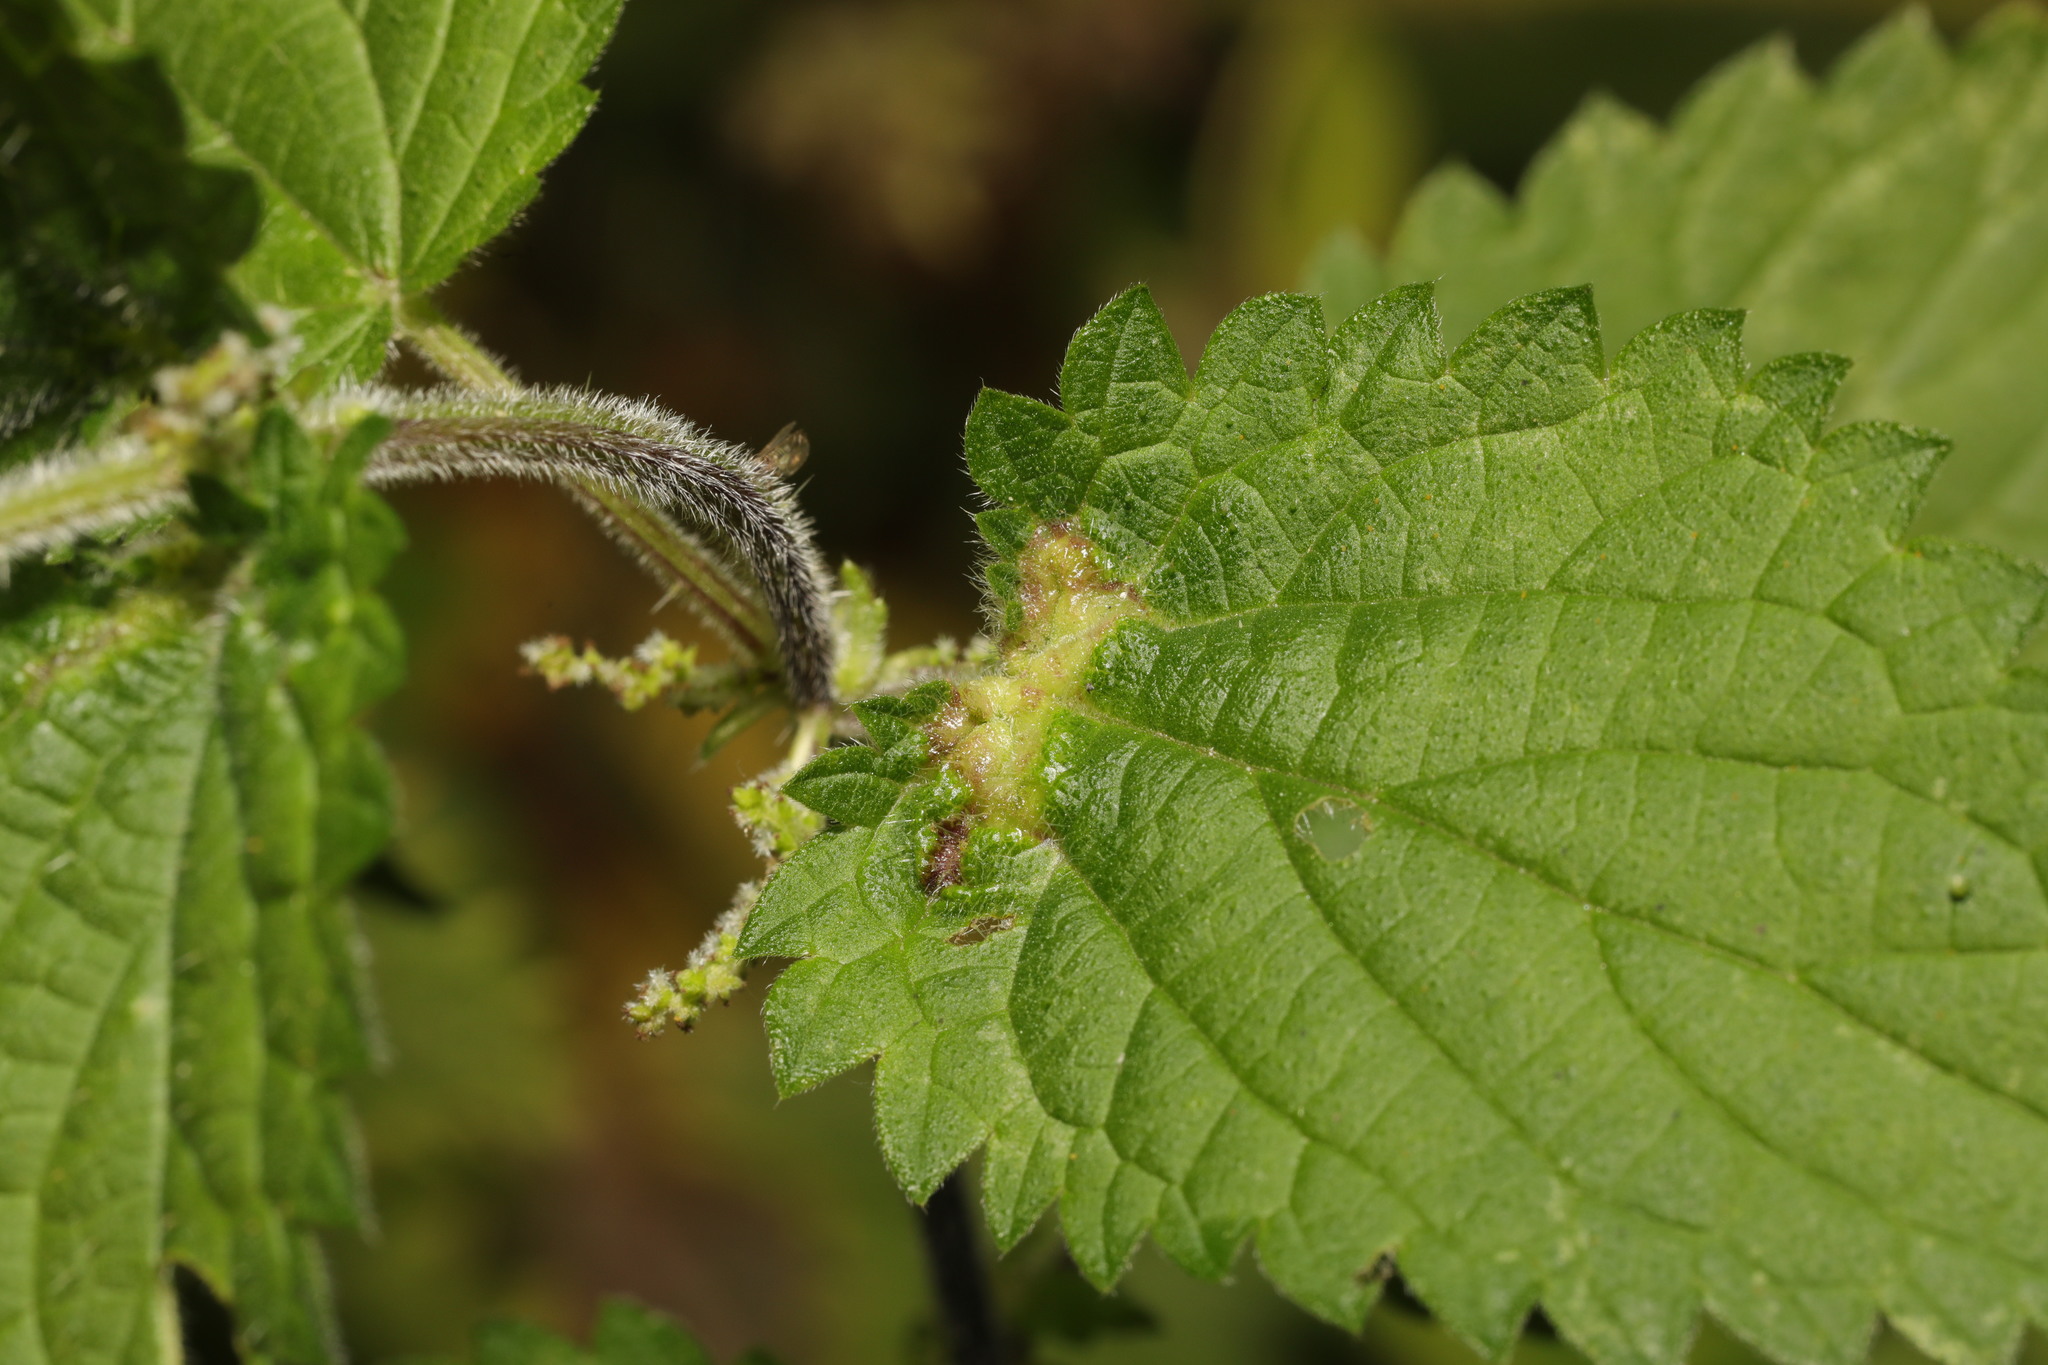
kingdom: Animalia
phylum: Arthropoda
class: Insecta
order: Diptera
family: Cecidomyiidae
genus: Dasineura
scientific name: Dasineura urticae
